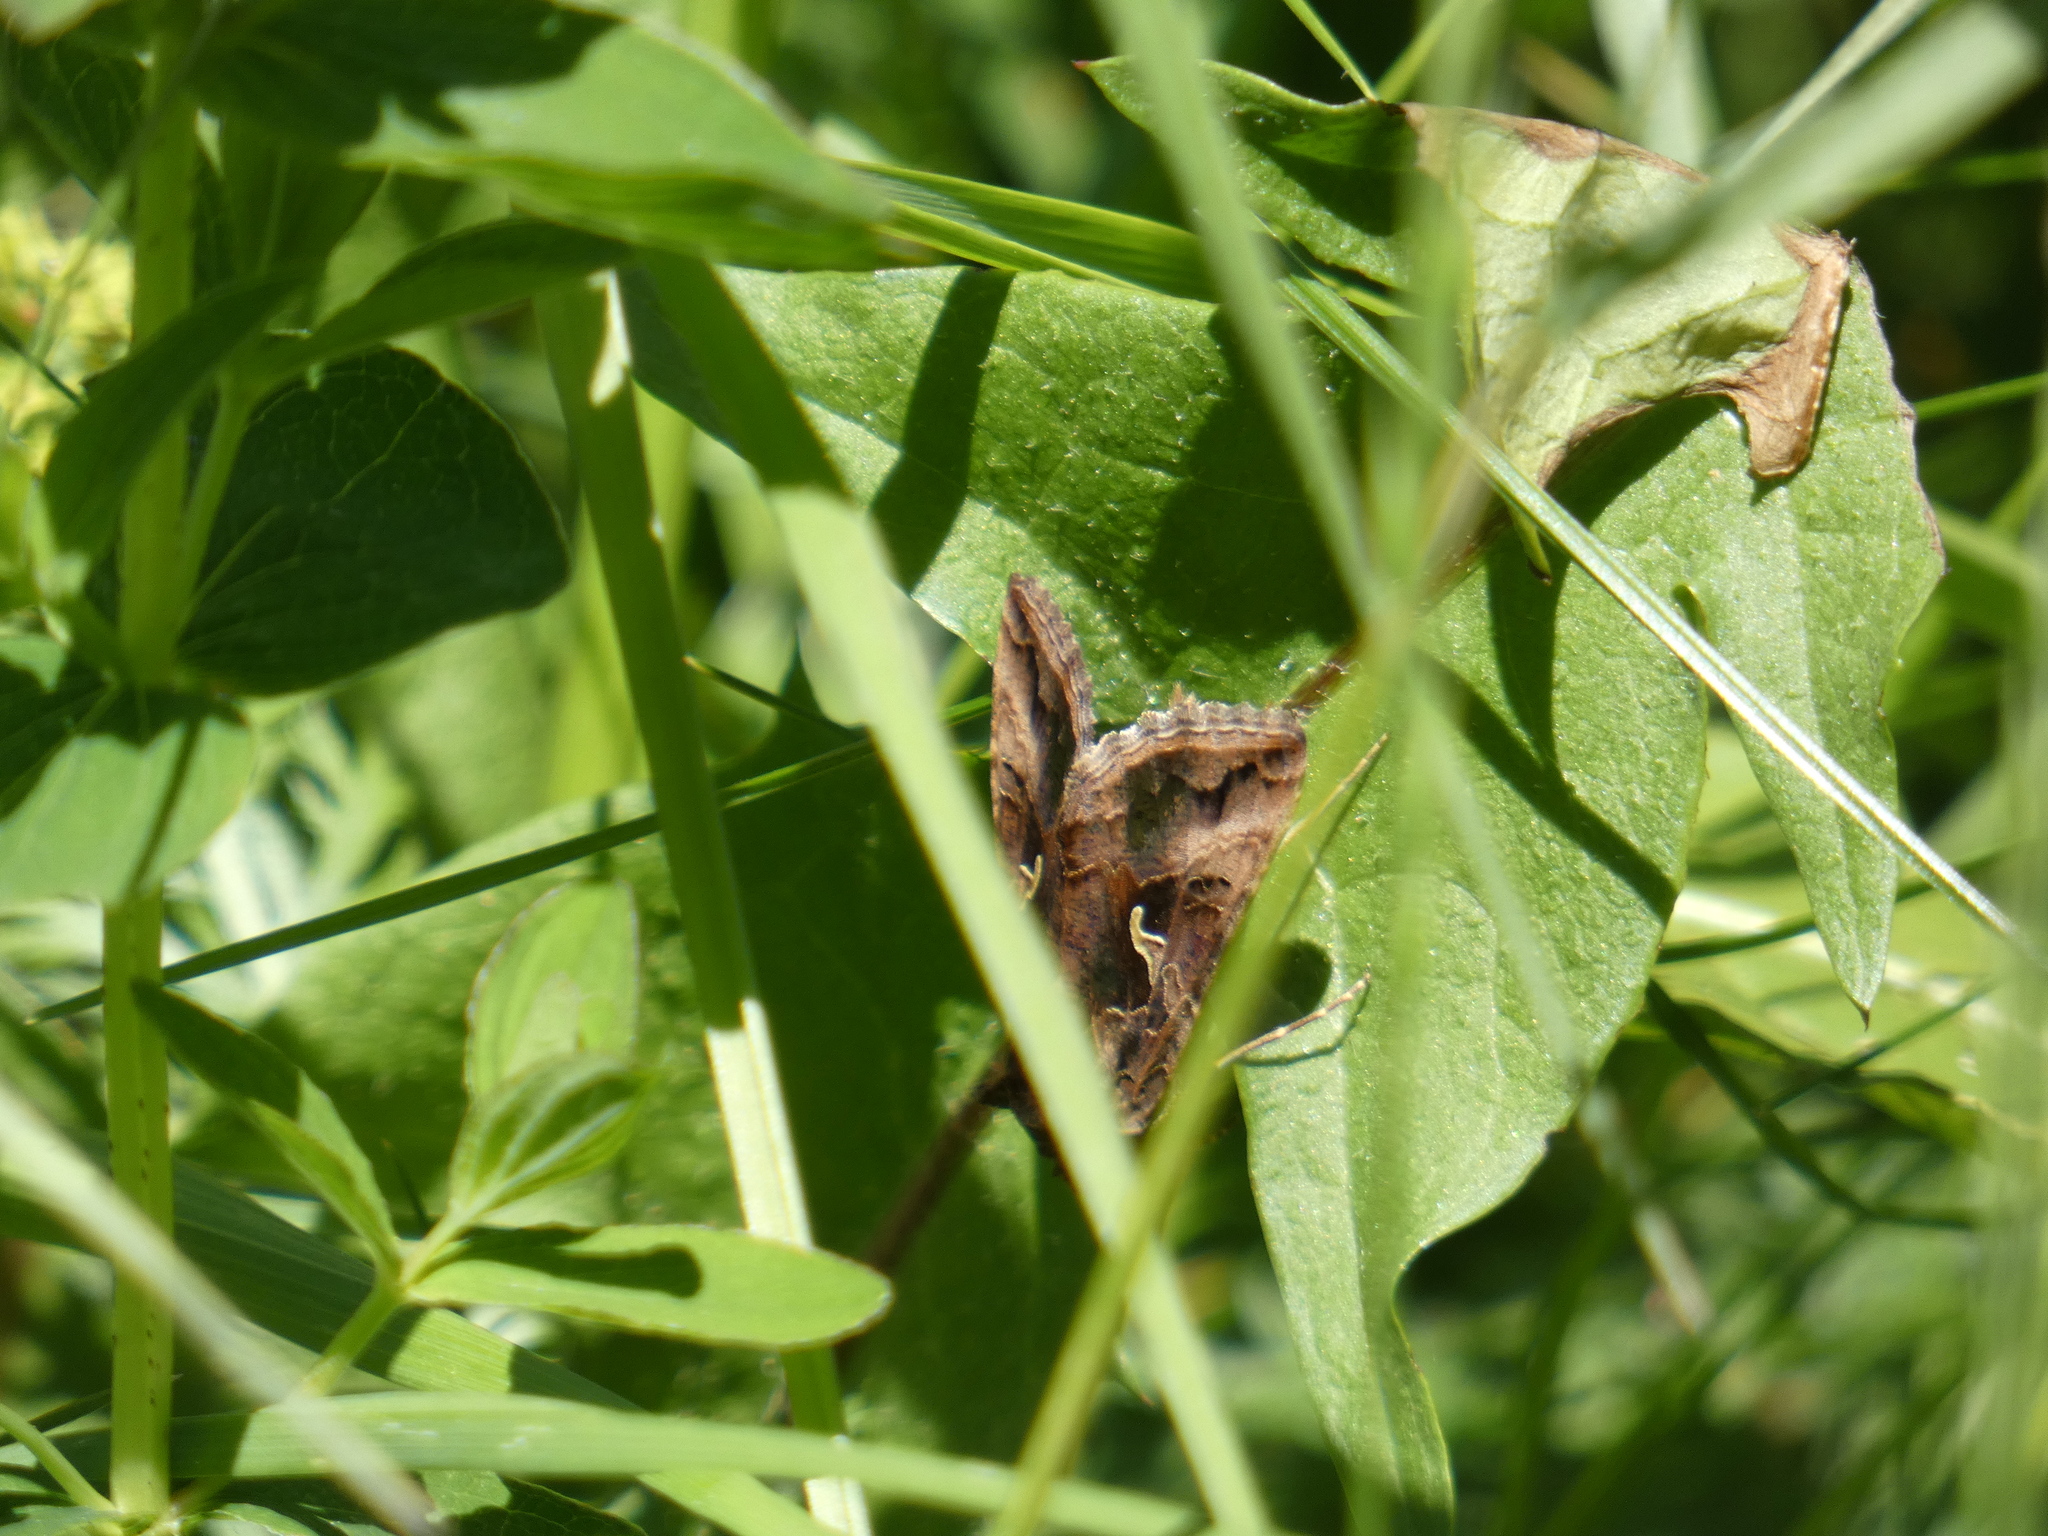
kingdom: Animalia
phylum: Arthropoda
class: Insecta
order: Lepidoptera
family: Noctuidae
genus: Autographa
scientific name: Autographa gamma
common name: Silver y
